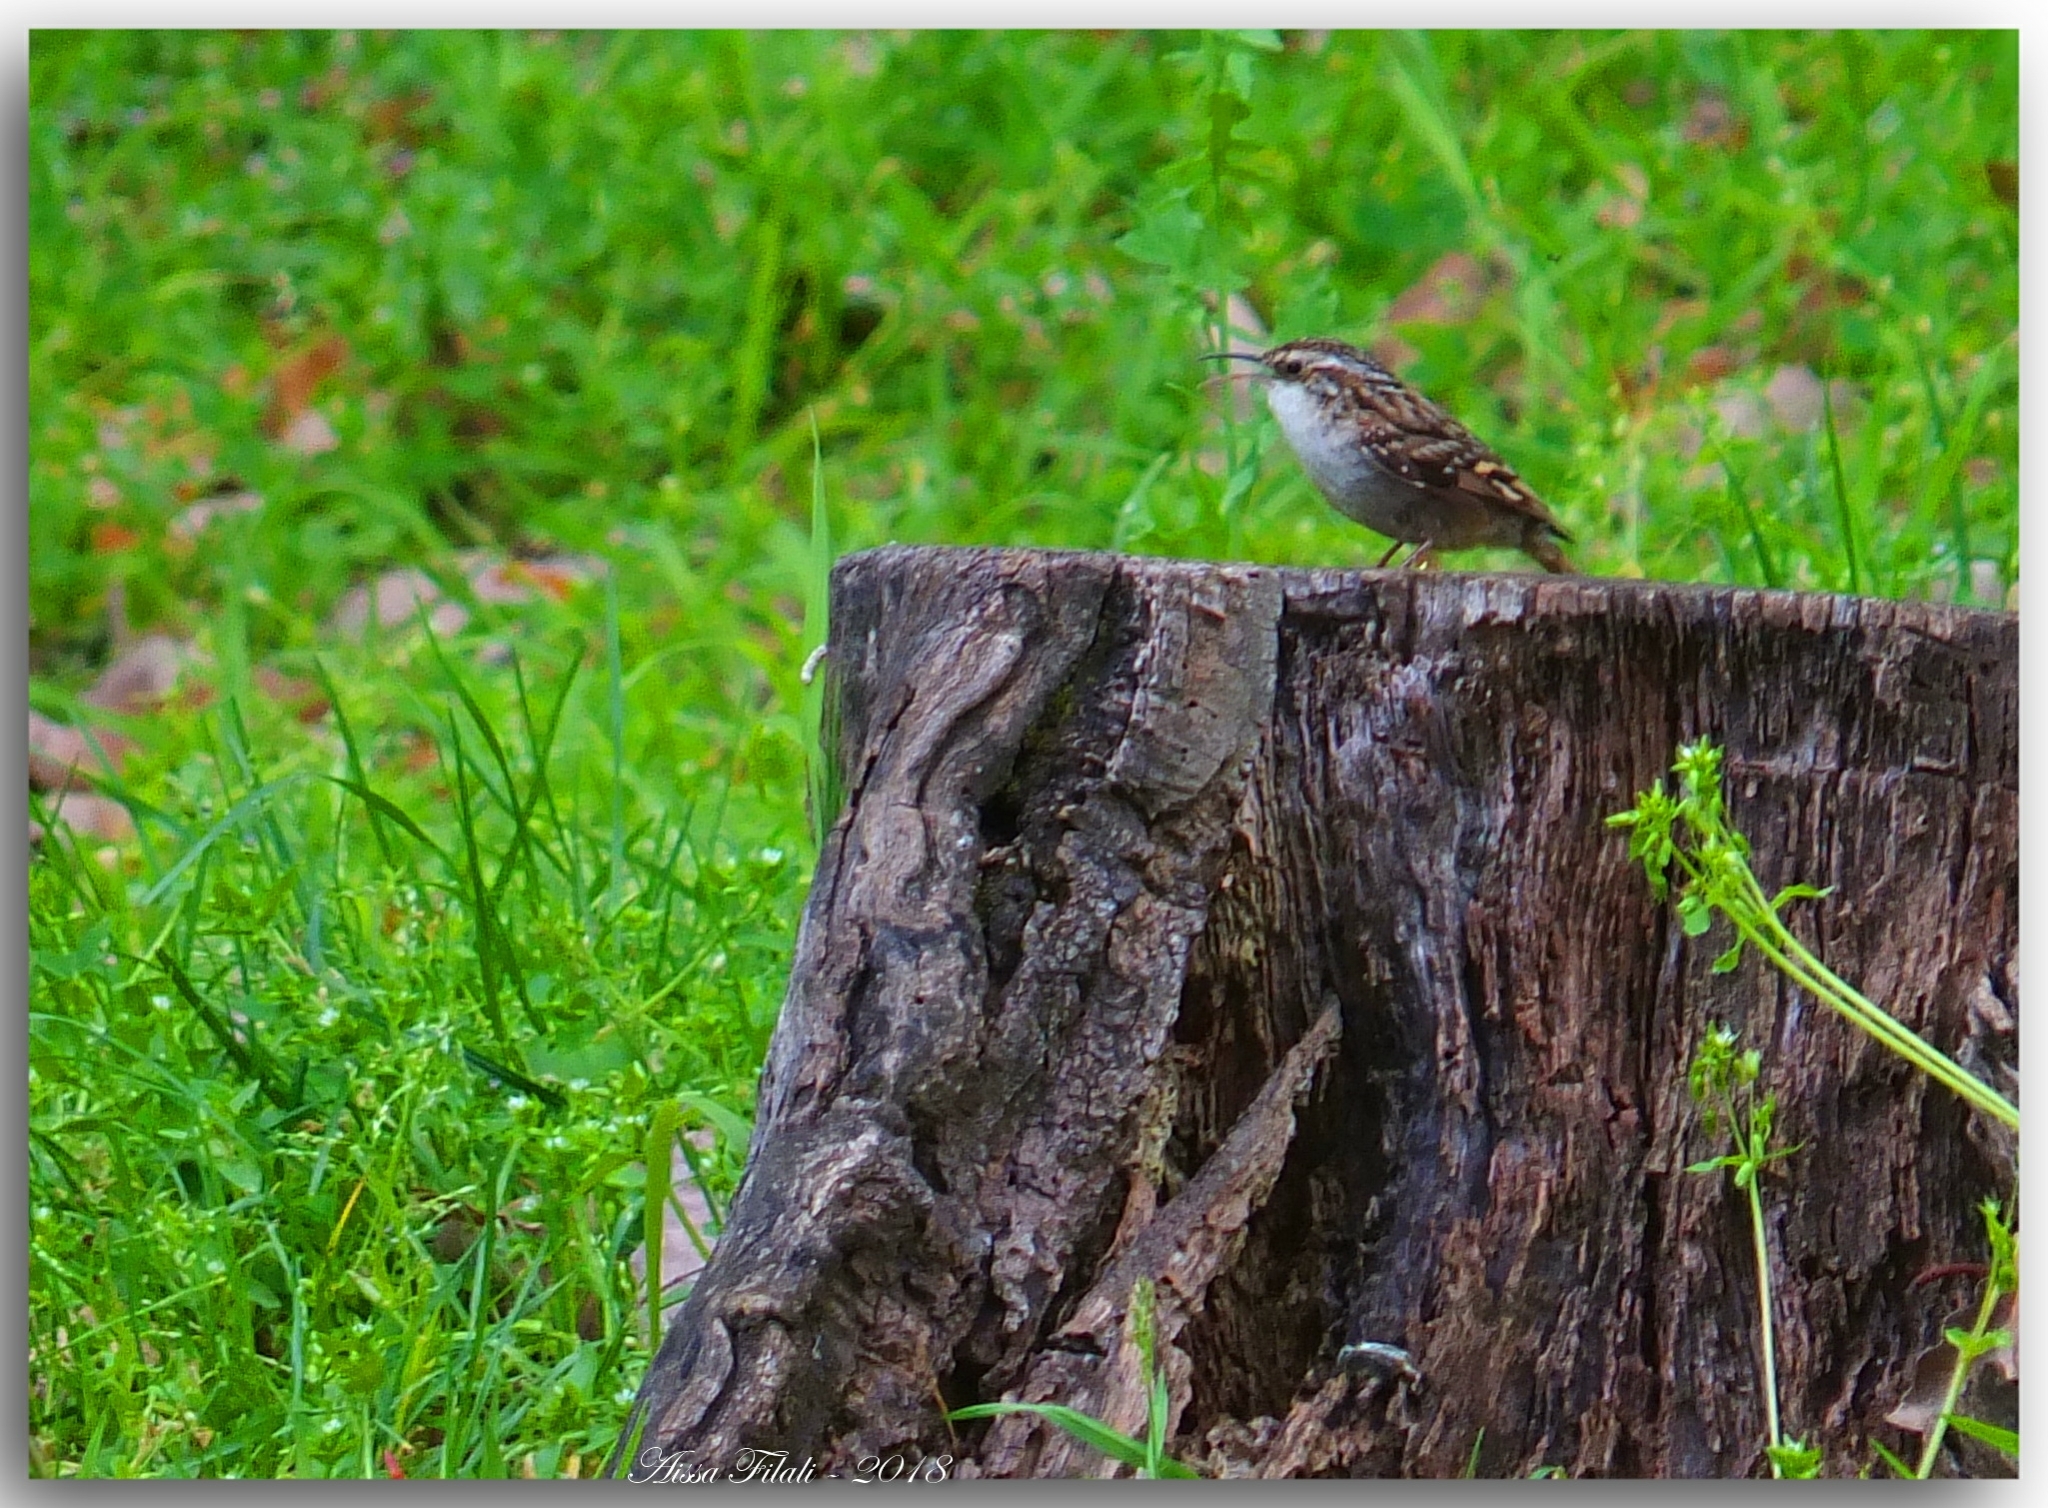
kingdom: Animalia
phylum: Chordata
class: Aves
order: Passeriformes
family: Certhiidae
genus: Certhia
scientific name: Certhia brachydactyla
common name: Short-toed treecreeper
